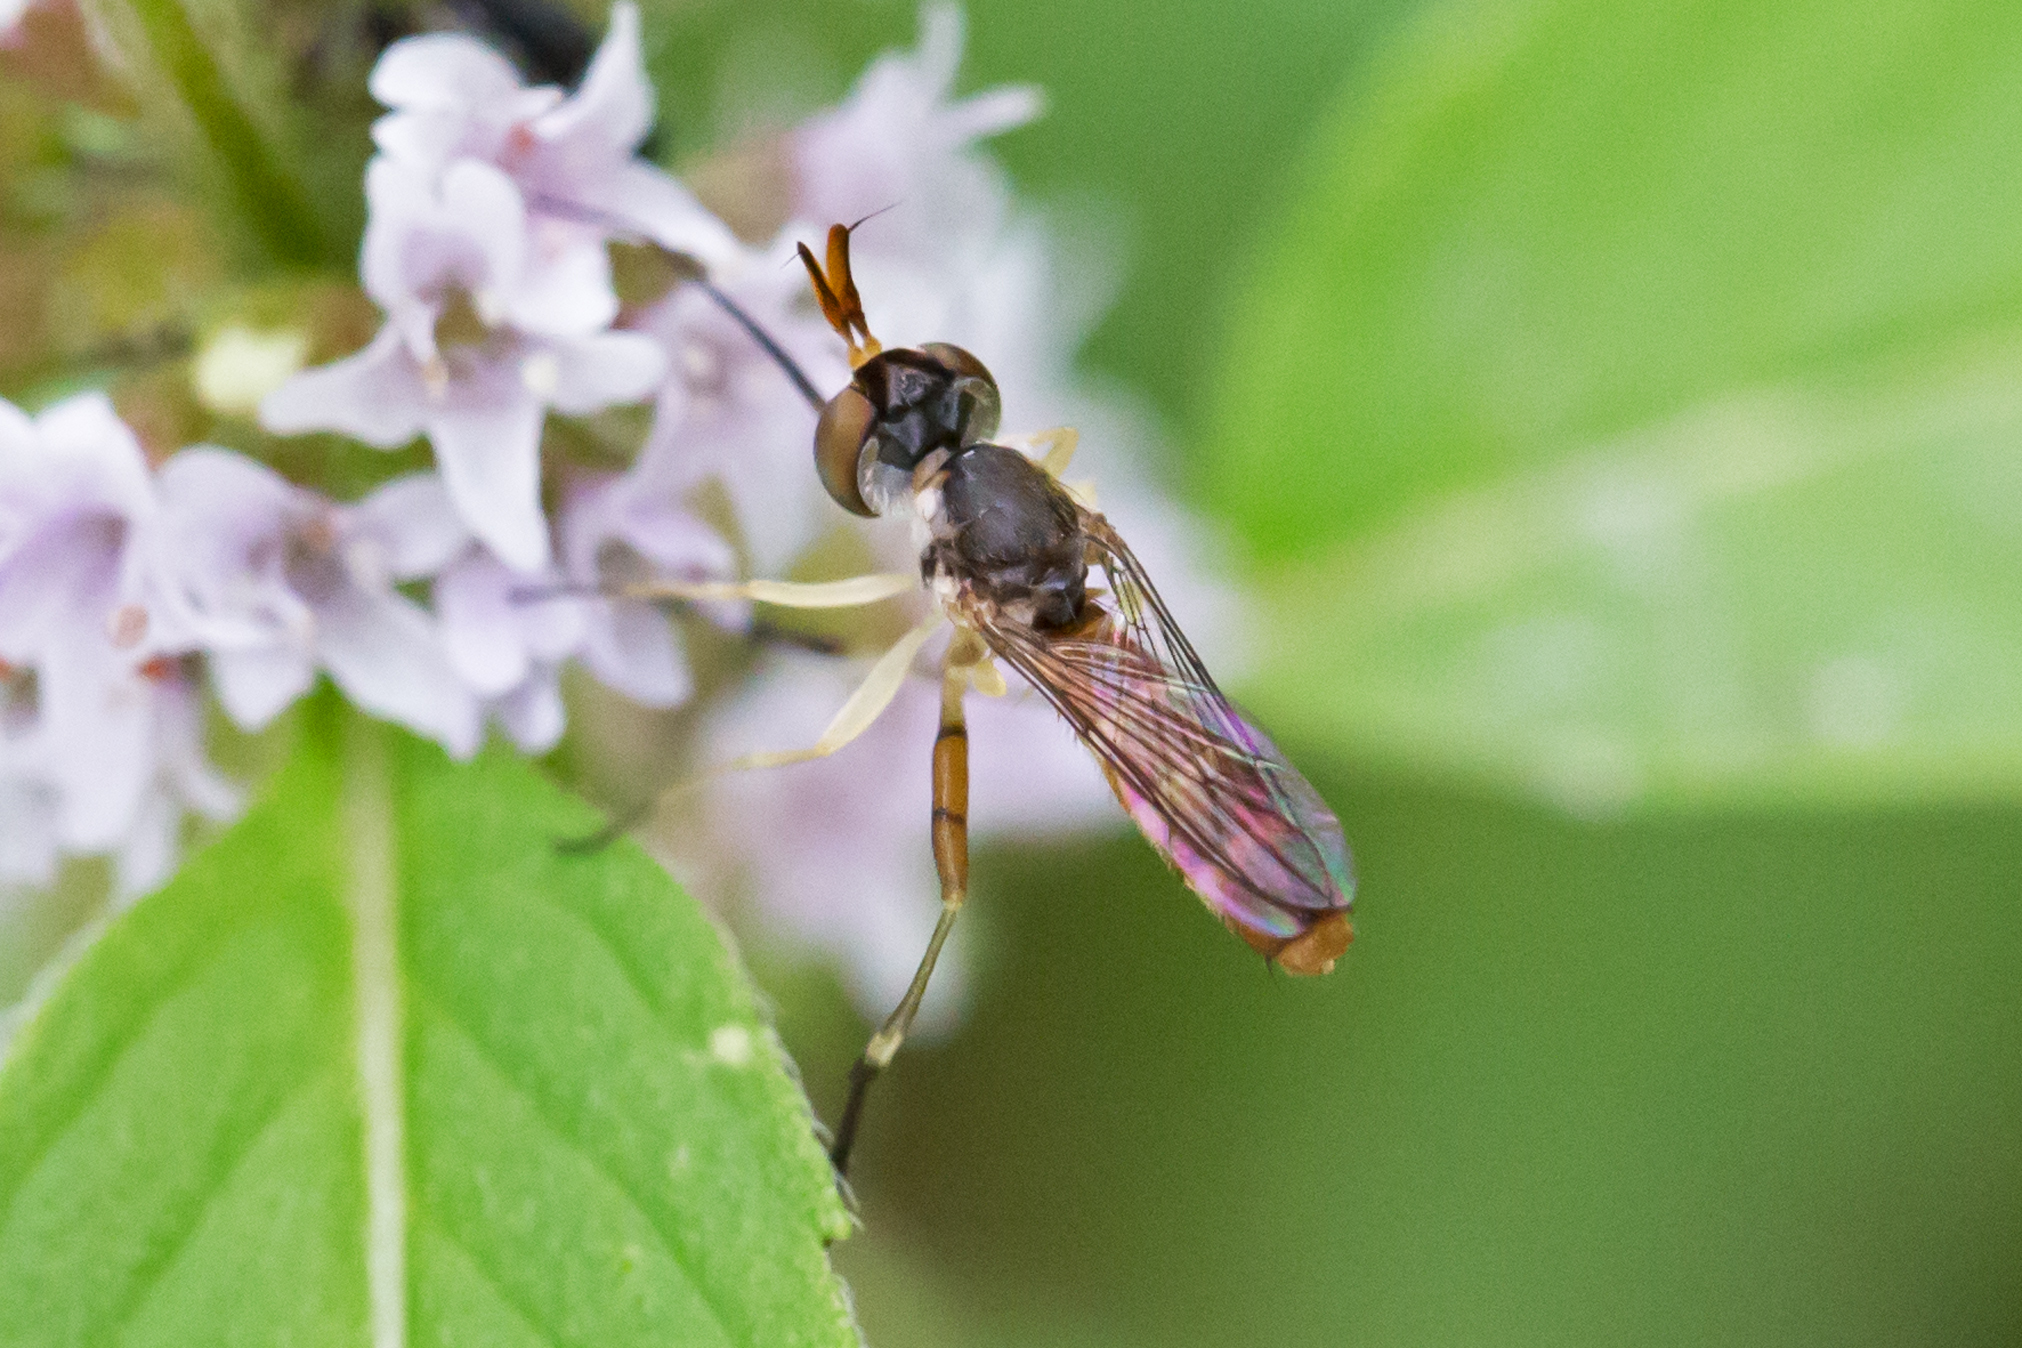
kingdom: Animalia
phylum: Arthropoda
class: Insecta
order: Diptera
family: Conopidae
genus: Stylogaster
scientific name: Stylogaster neglecta
